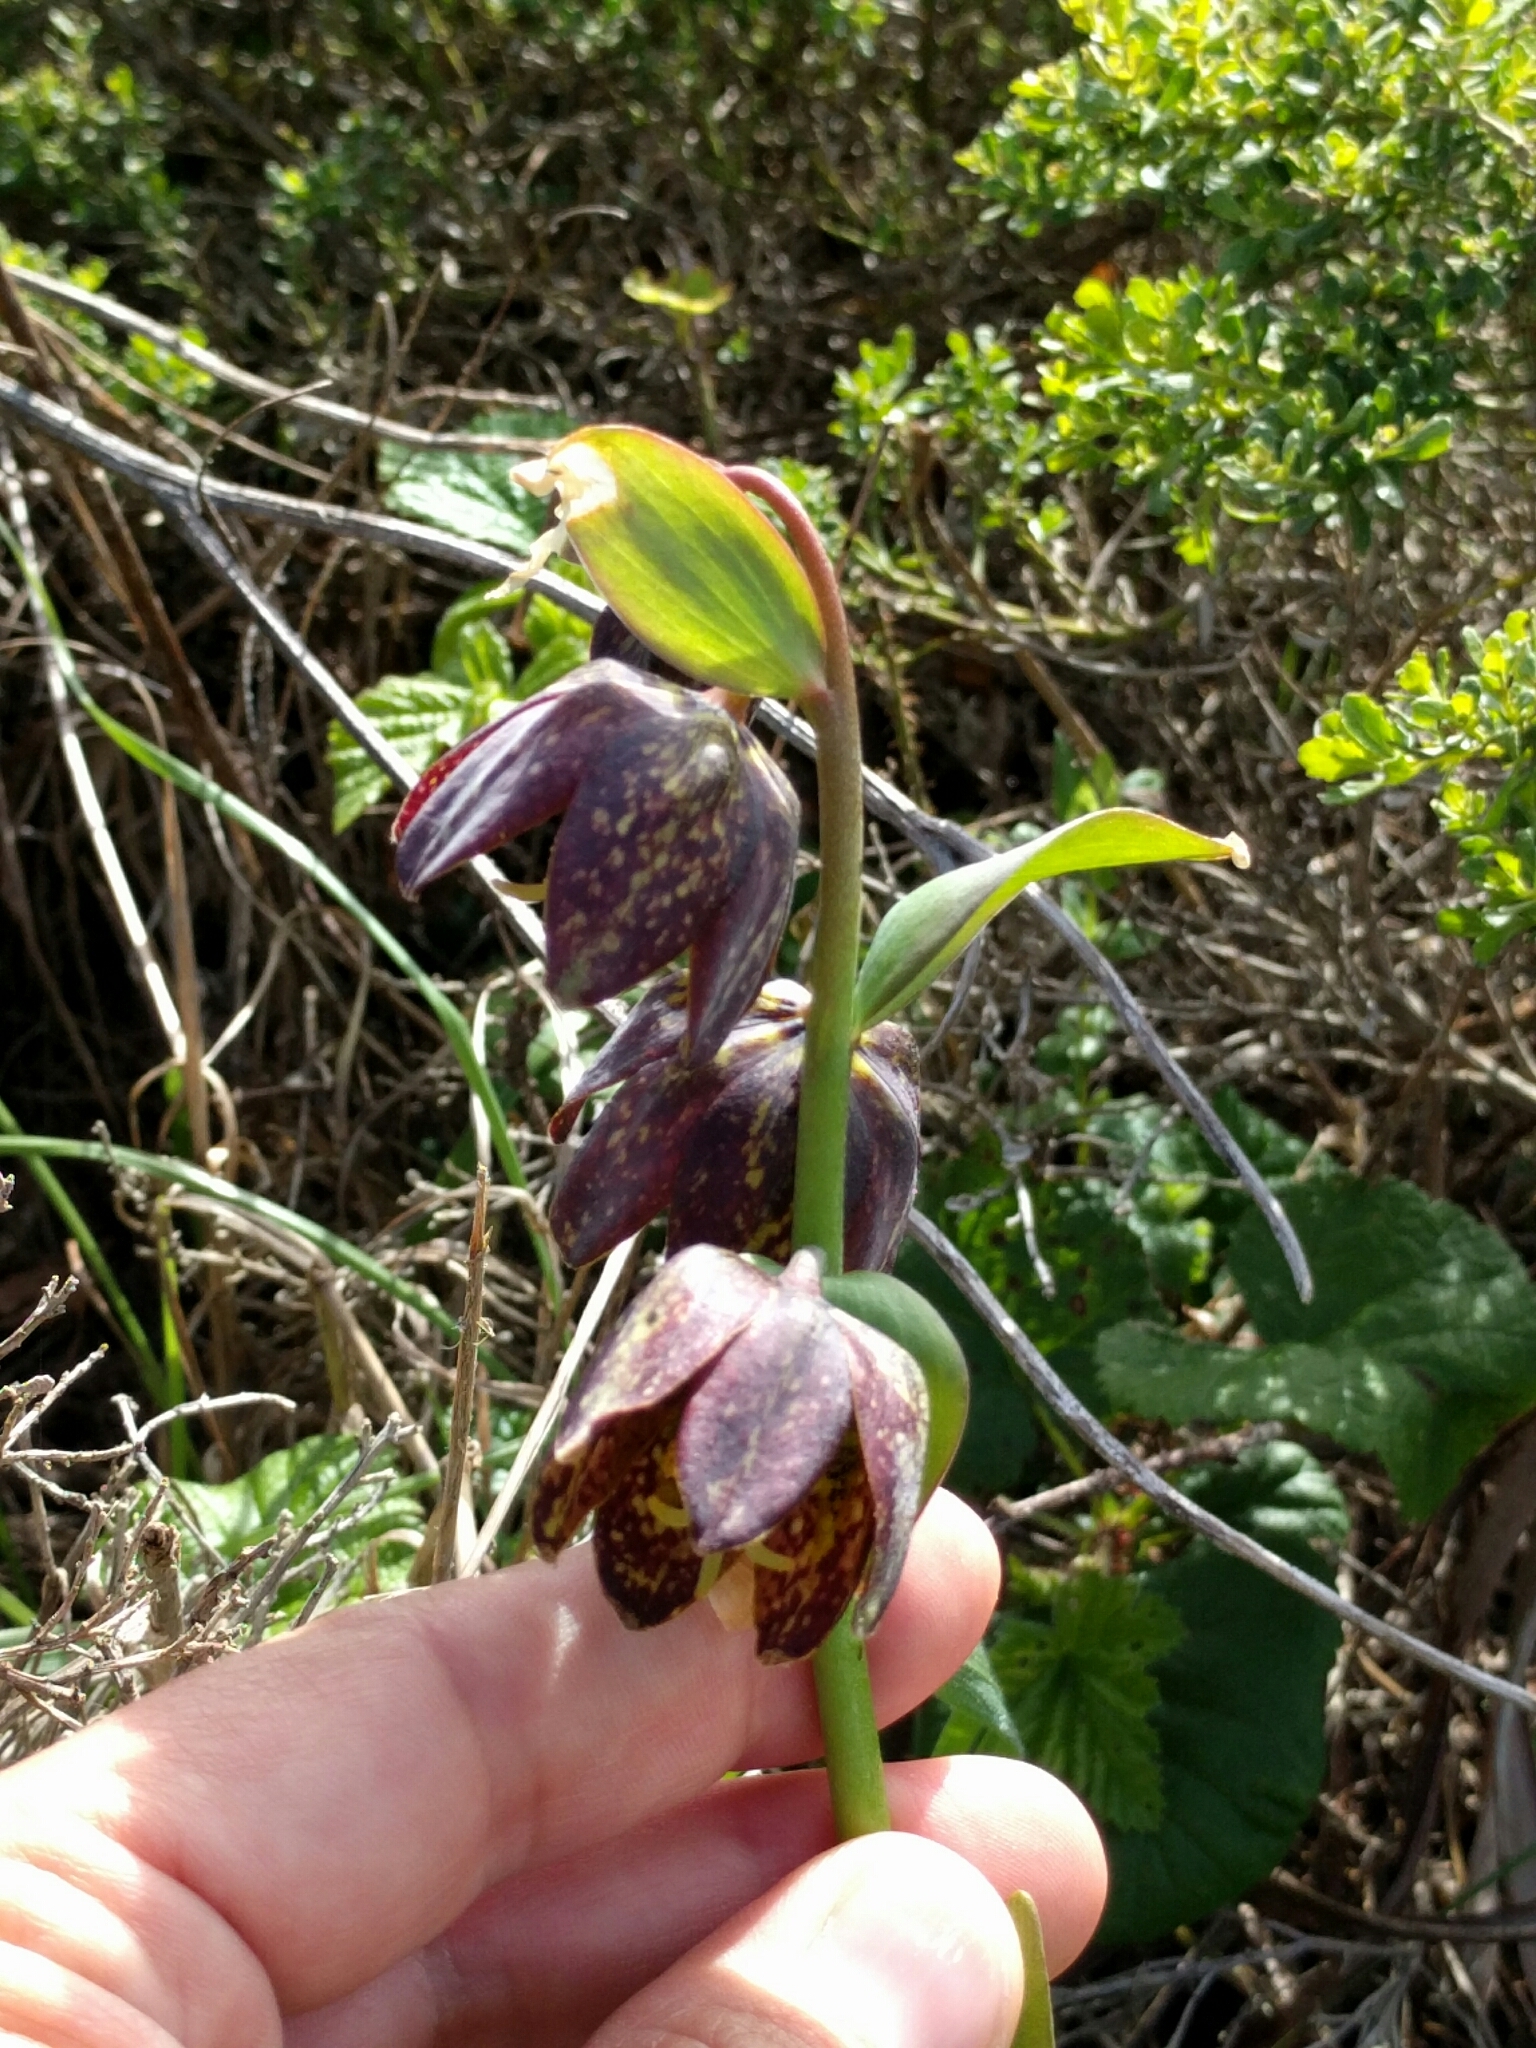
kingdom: Plantae
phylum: Tracheophyta
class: Liliopsida
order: Liliales
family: Liliaceae
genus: Fritillaria
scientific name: Fritillaria affinis
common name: Ojai fritillary
